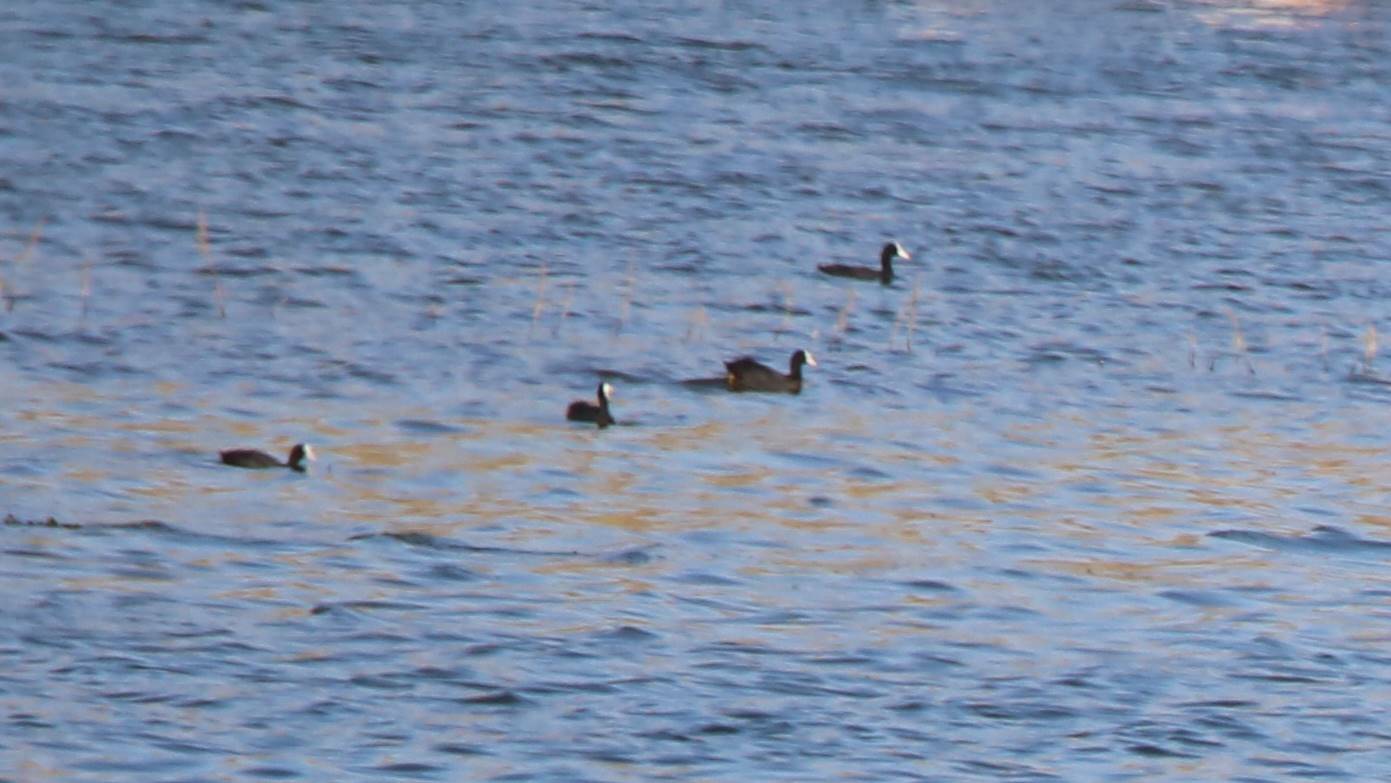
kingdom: Animalia
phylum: Chordata
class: Aves
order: Gruiformes
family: Rallidae
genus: Fulica
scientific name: Fulica atra
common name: Eurasian coot
